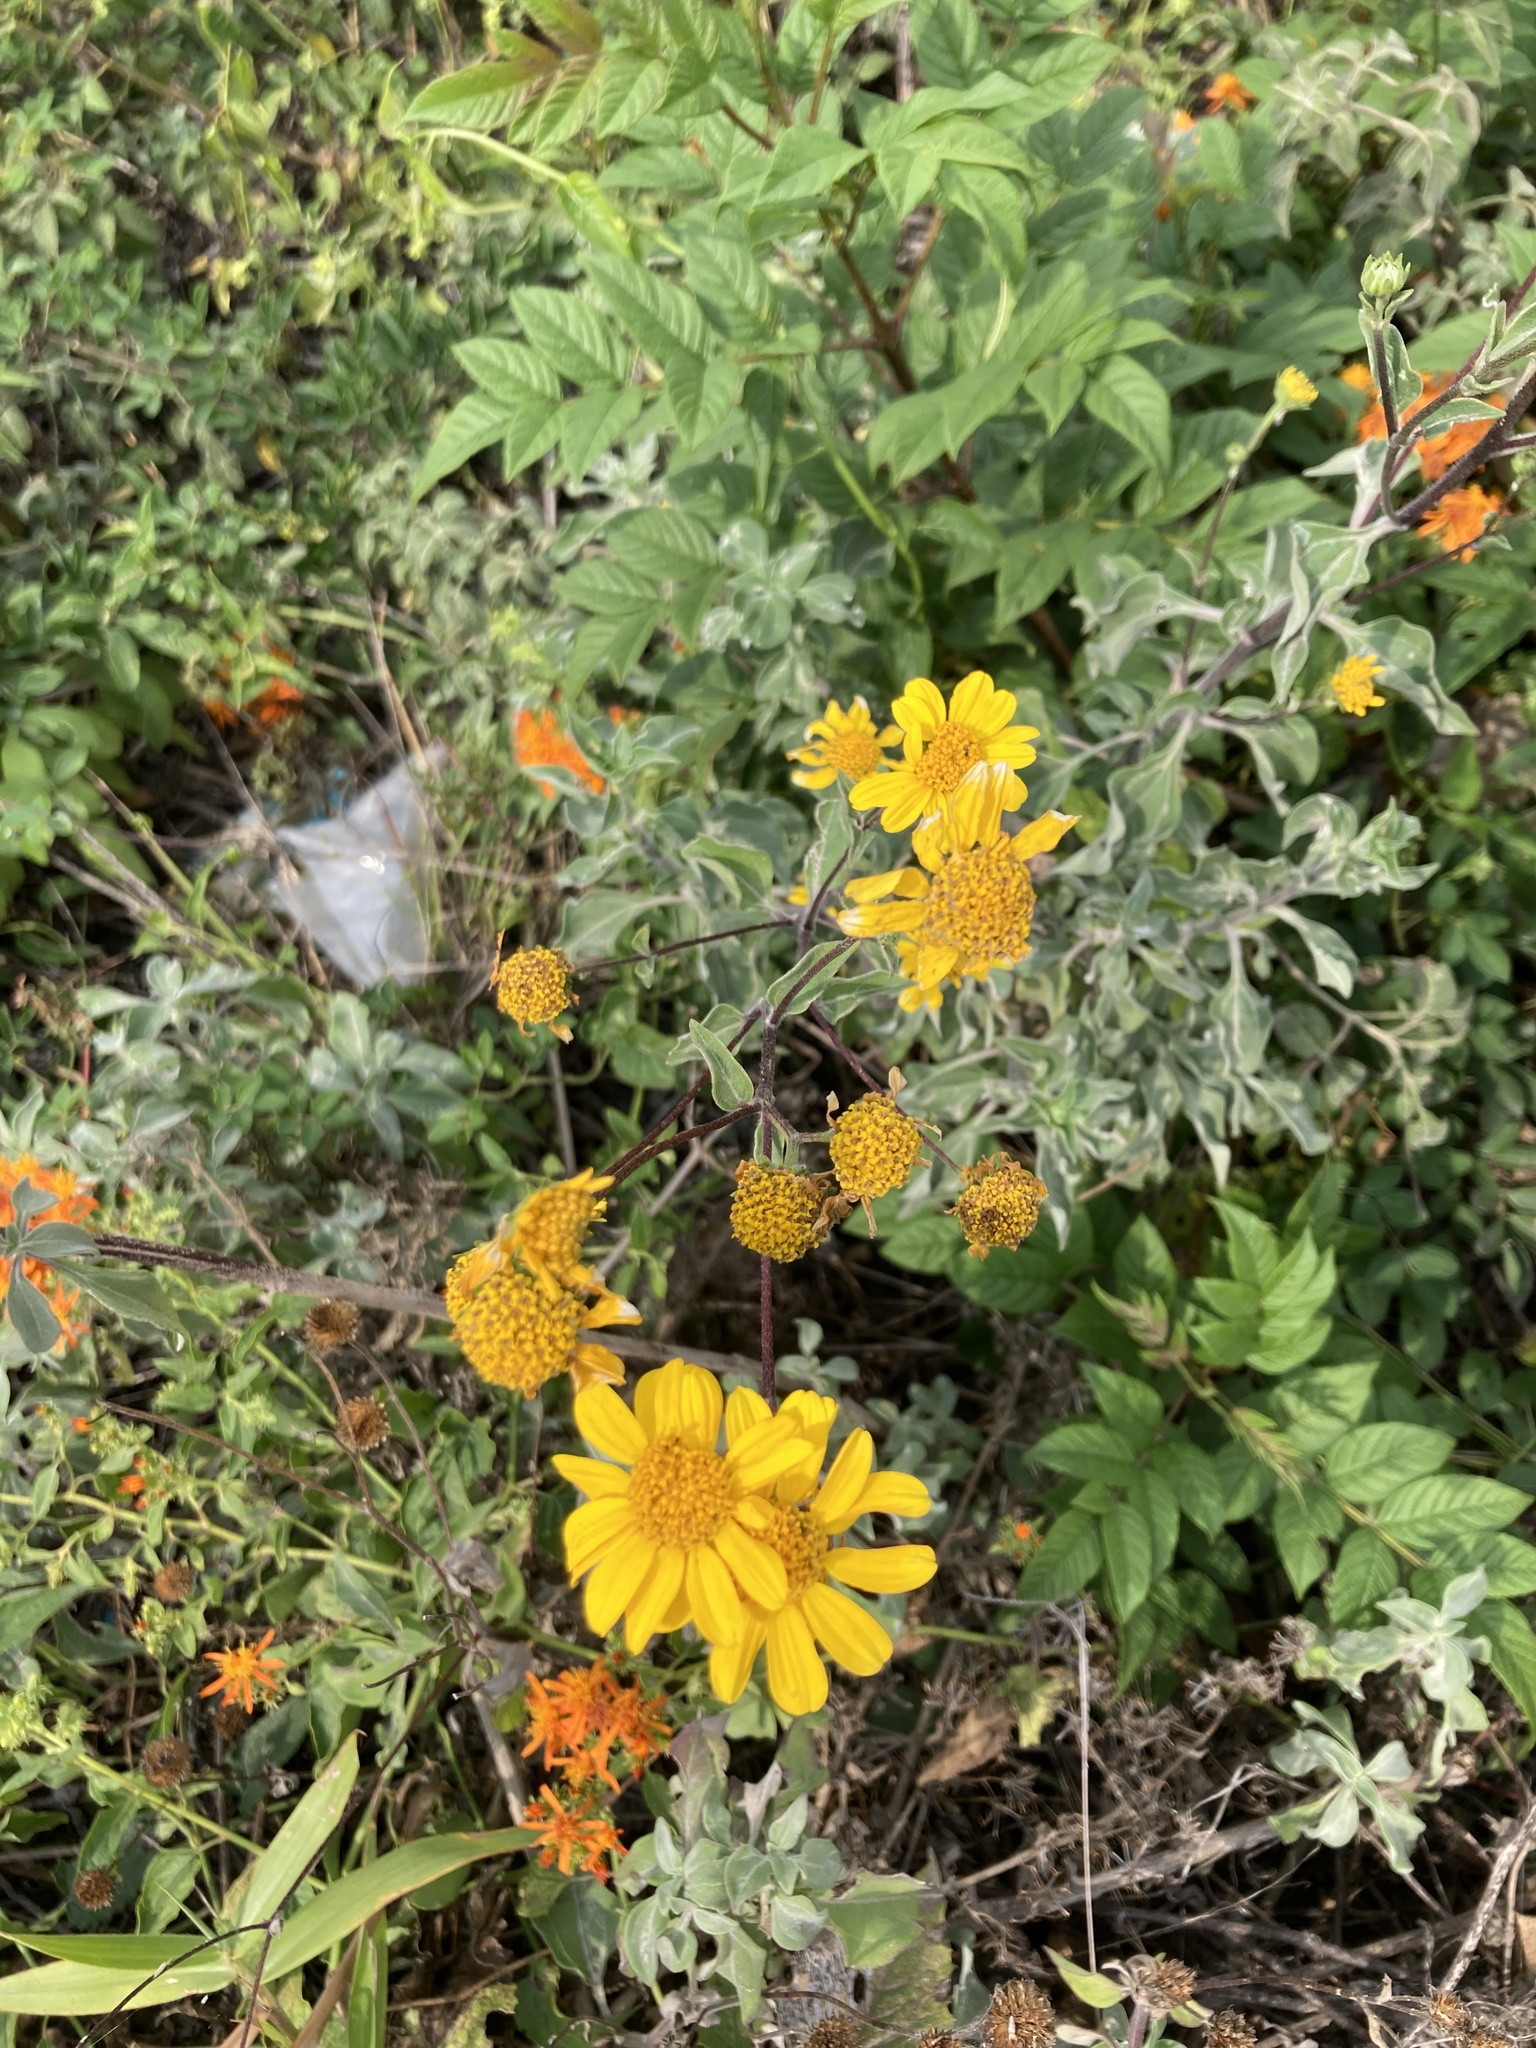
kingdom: Plantae
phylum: Tracheophyta
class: Magnoliopsida
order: Asterales
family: Asteraceae
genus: Verbesina
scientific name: Verbesina hypoglauca
